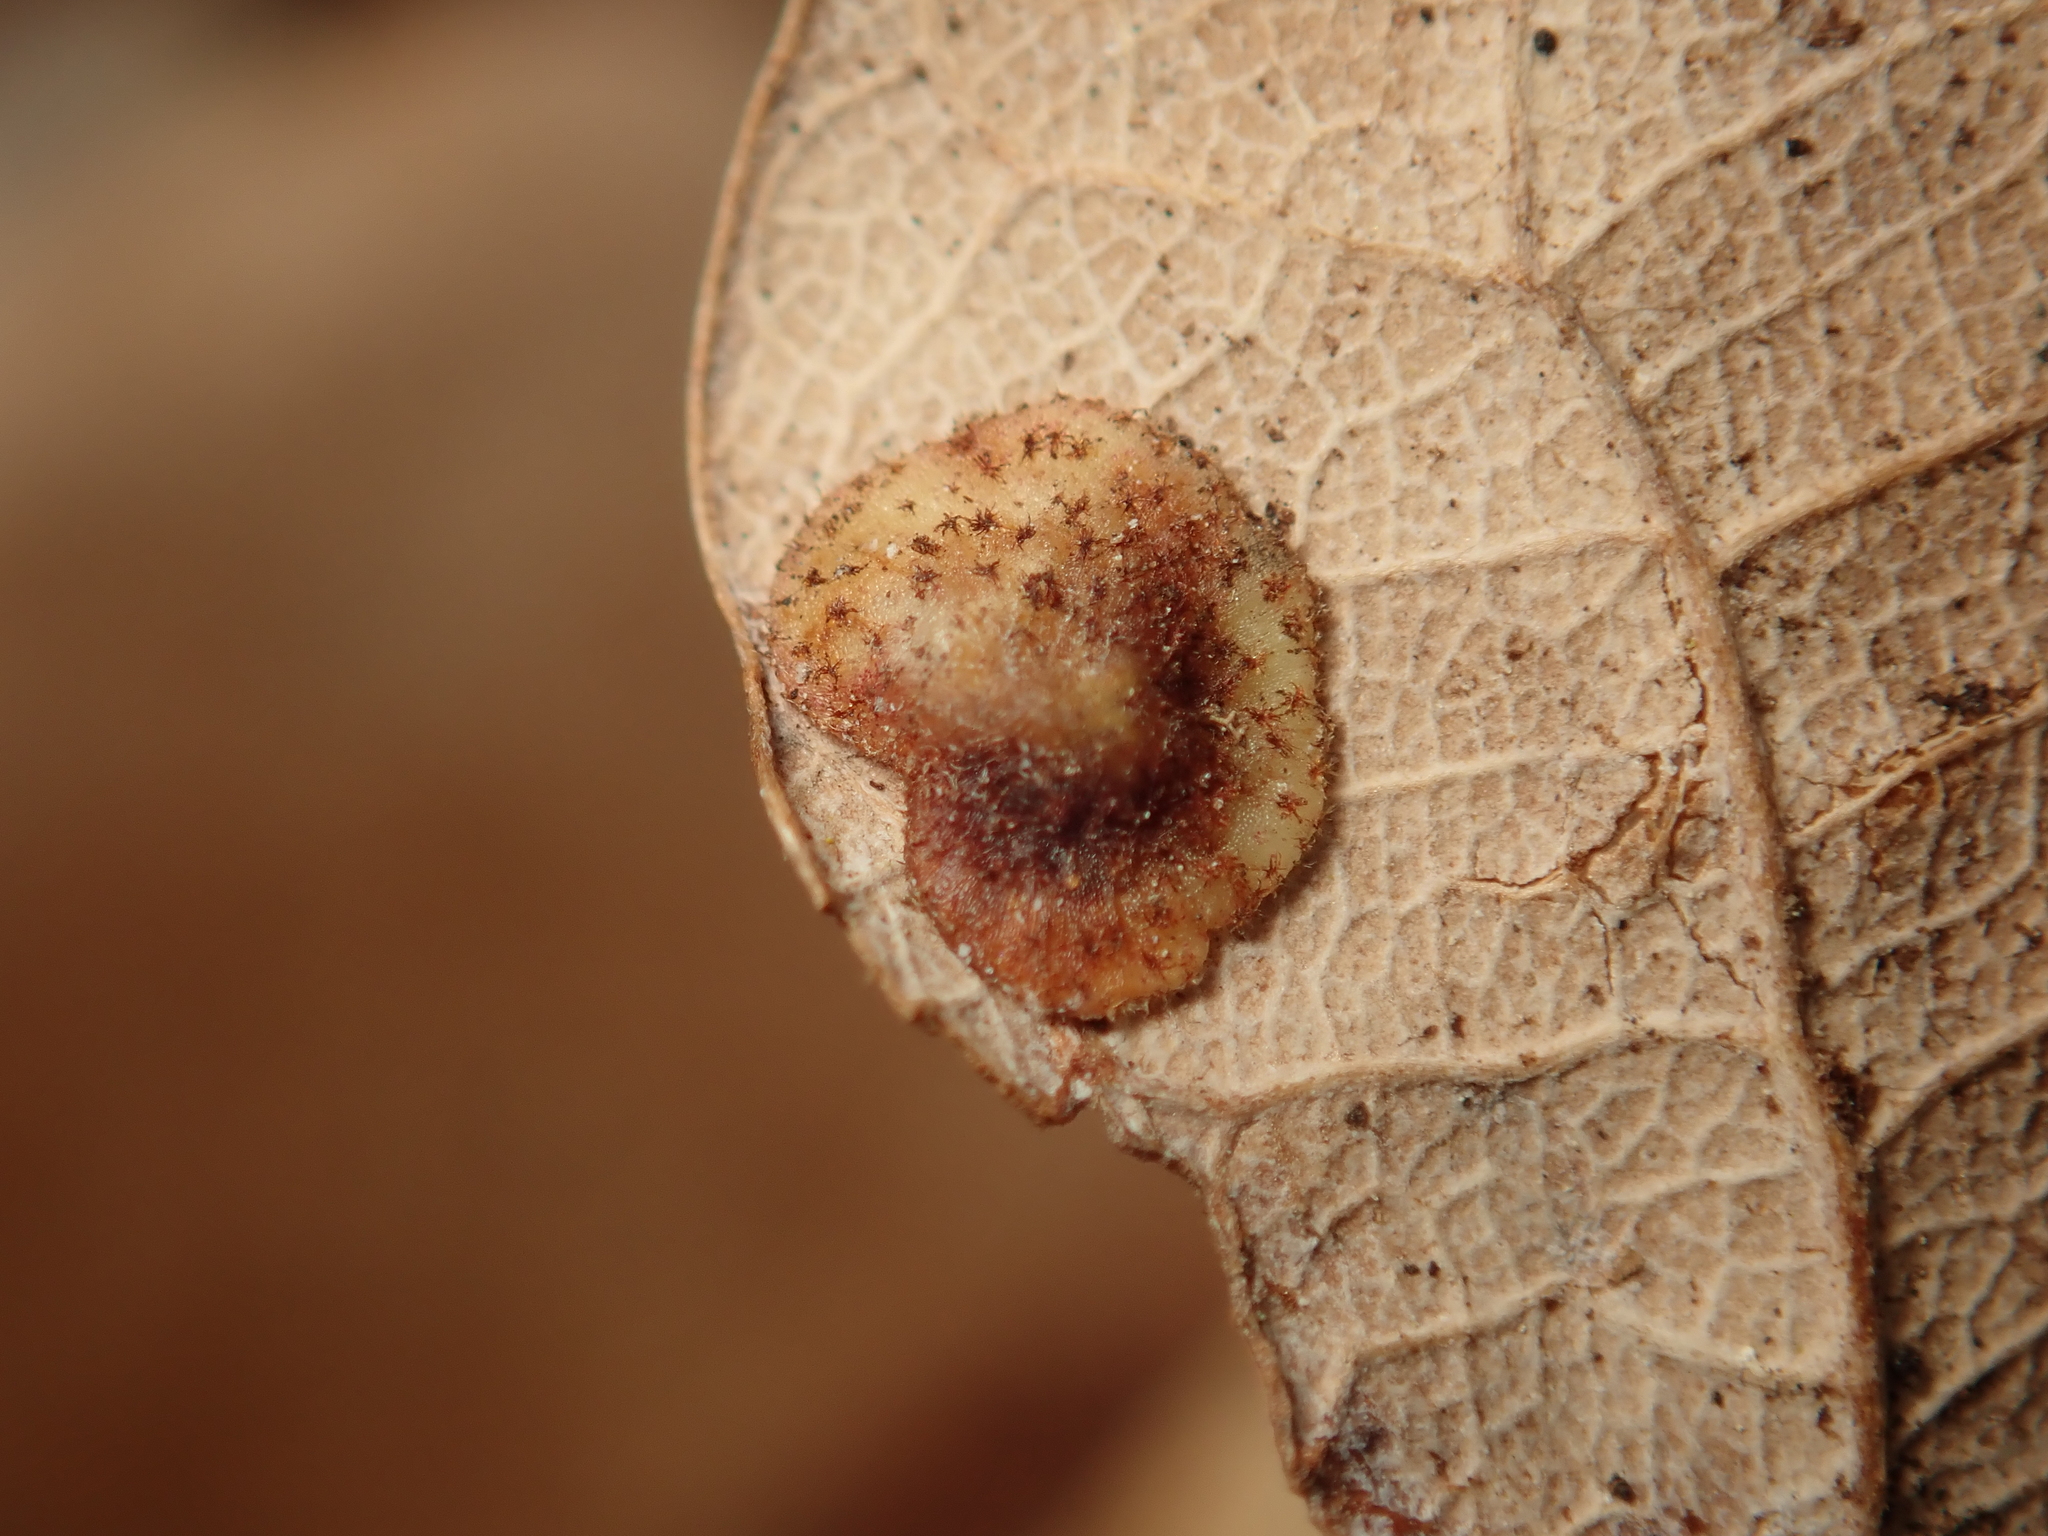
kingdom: Animalia
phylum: Arthropoda
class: Insecta
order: Hymenoptera
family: Cynipidae
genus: Neuroterus
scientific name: Neuroterus quercusbaccarum
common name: Common spangle gall
